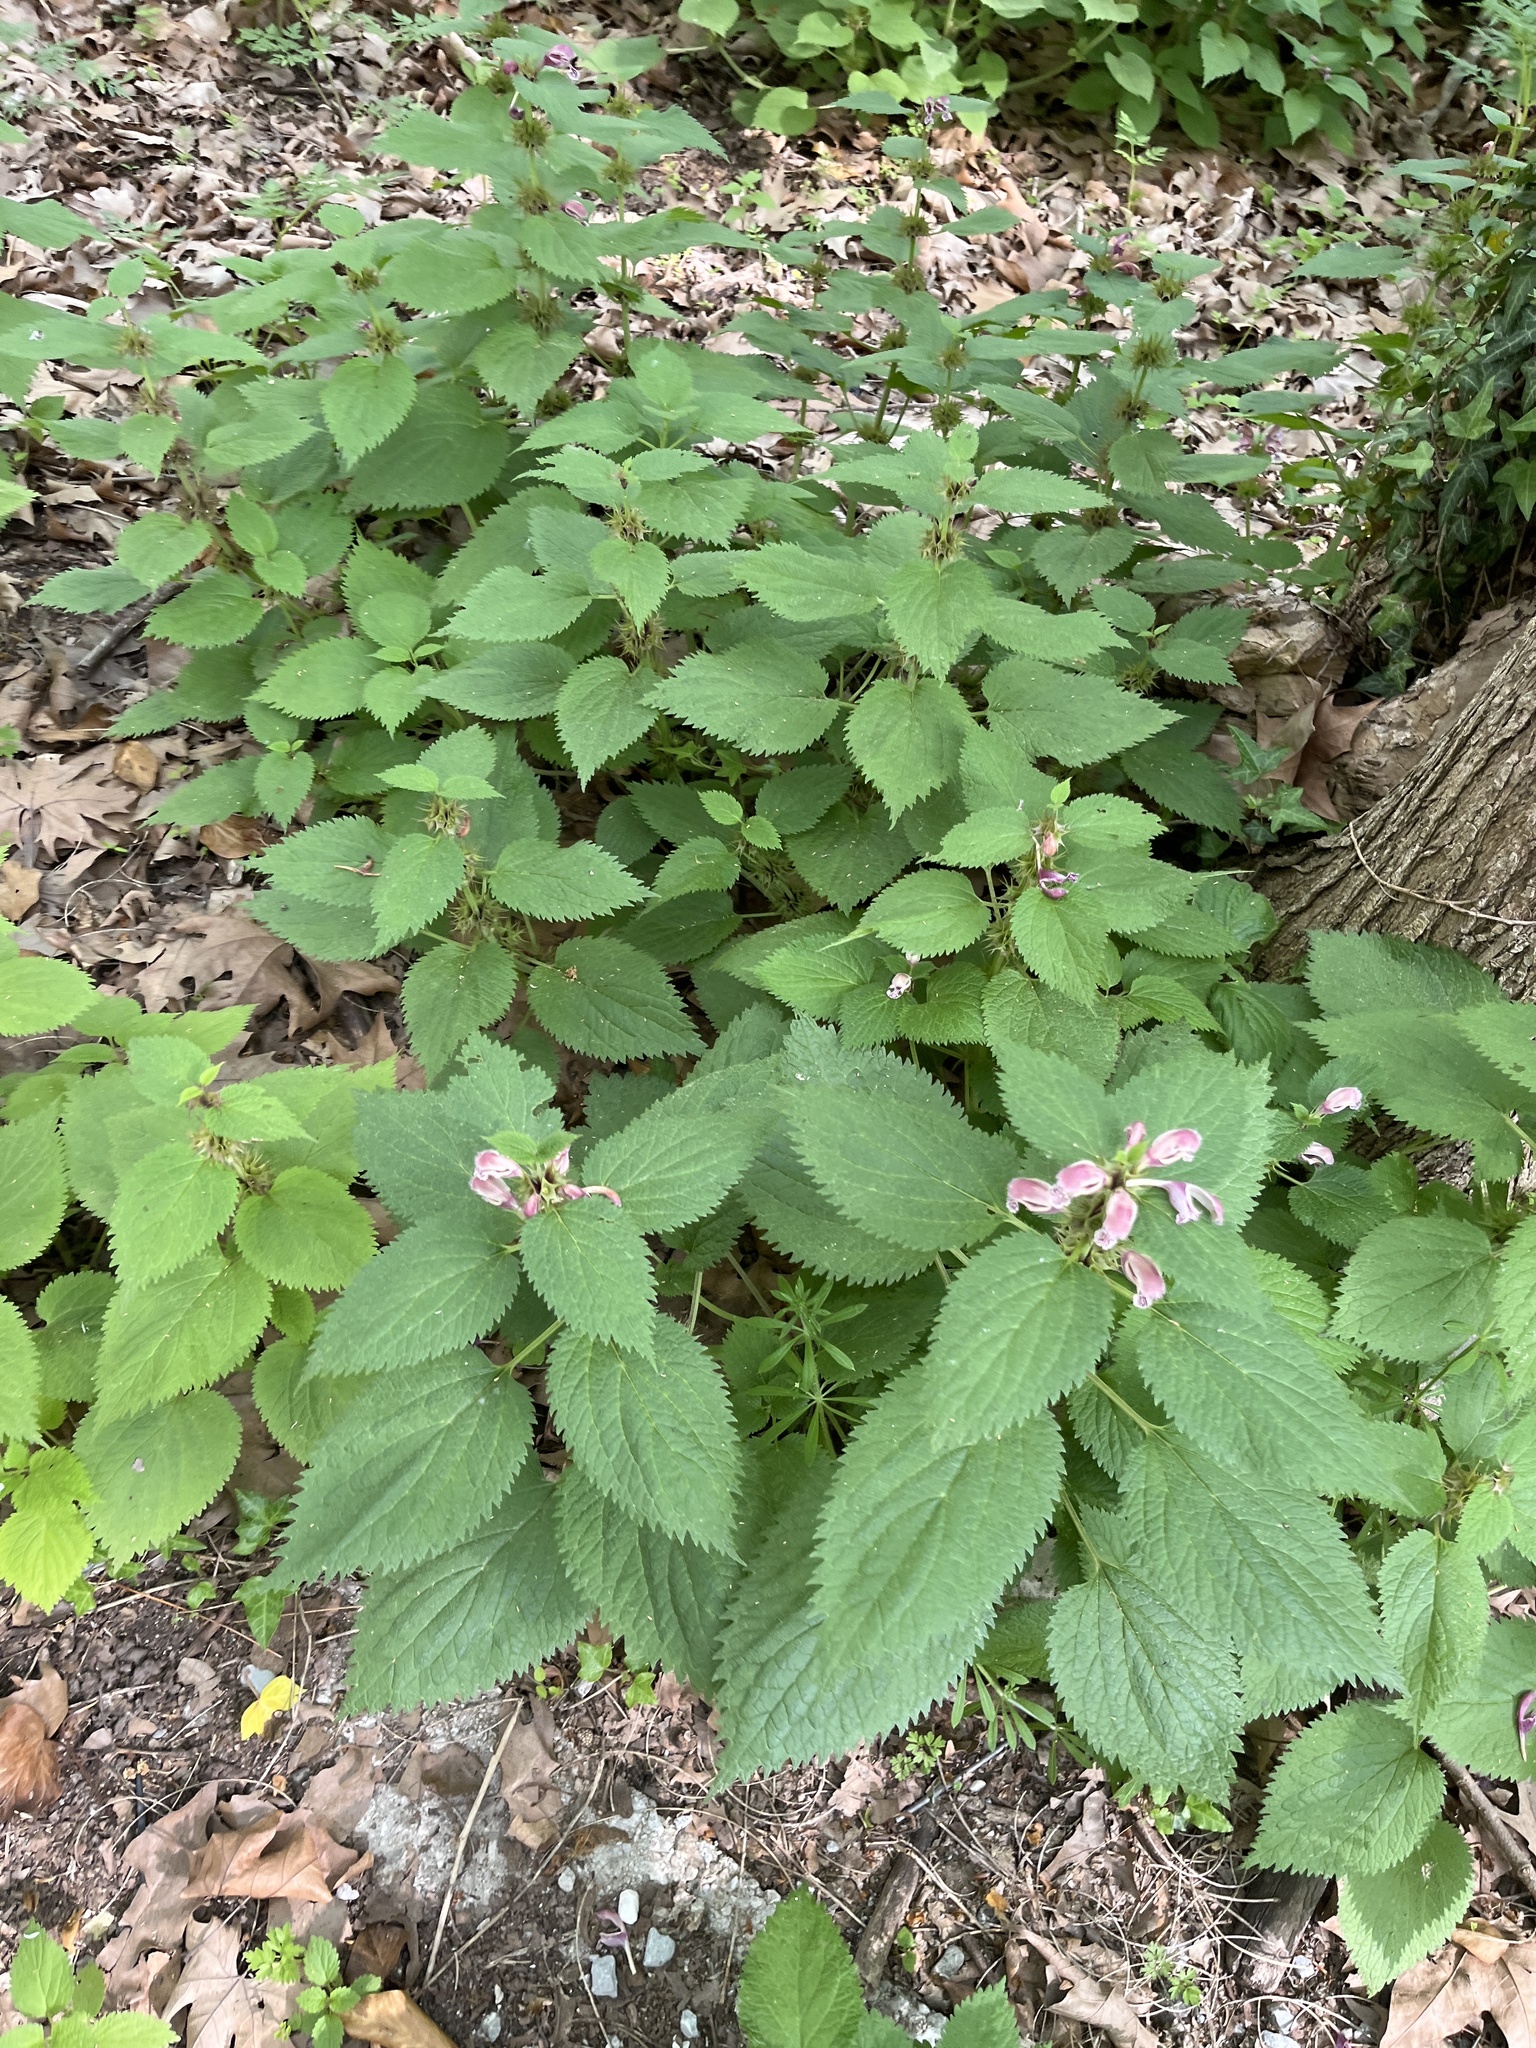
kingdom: Plantae
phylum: Tracheophyta
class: Magnoliopsida
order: Lamiales
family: Lamiaceae
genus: Lamium
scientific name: Lamium orvala
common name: Balm-leaved archangel
